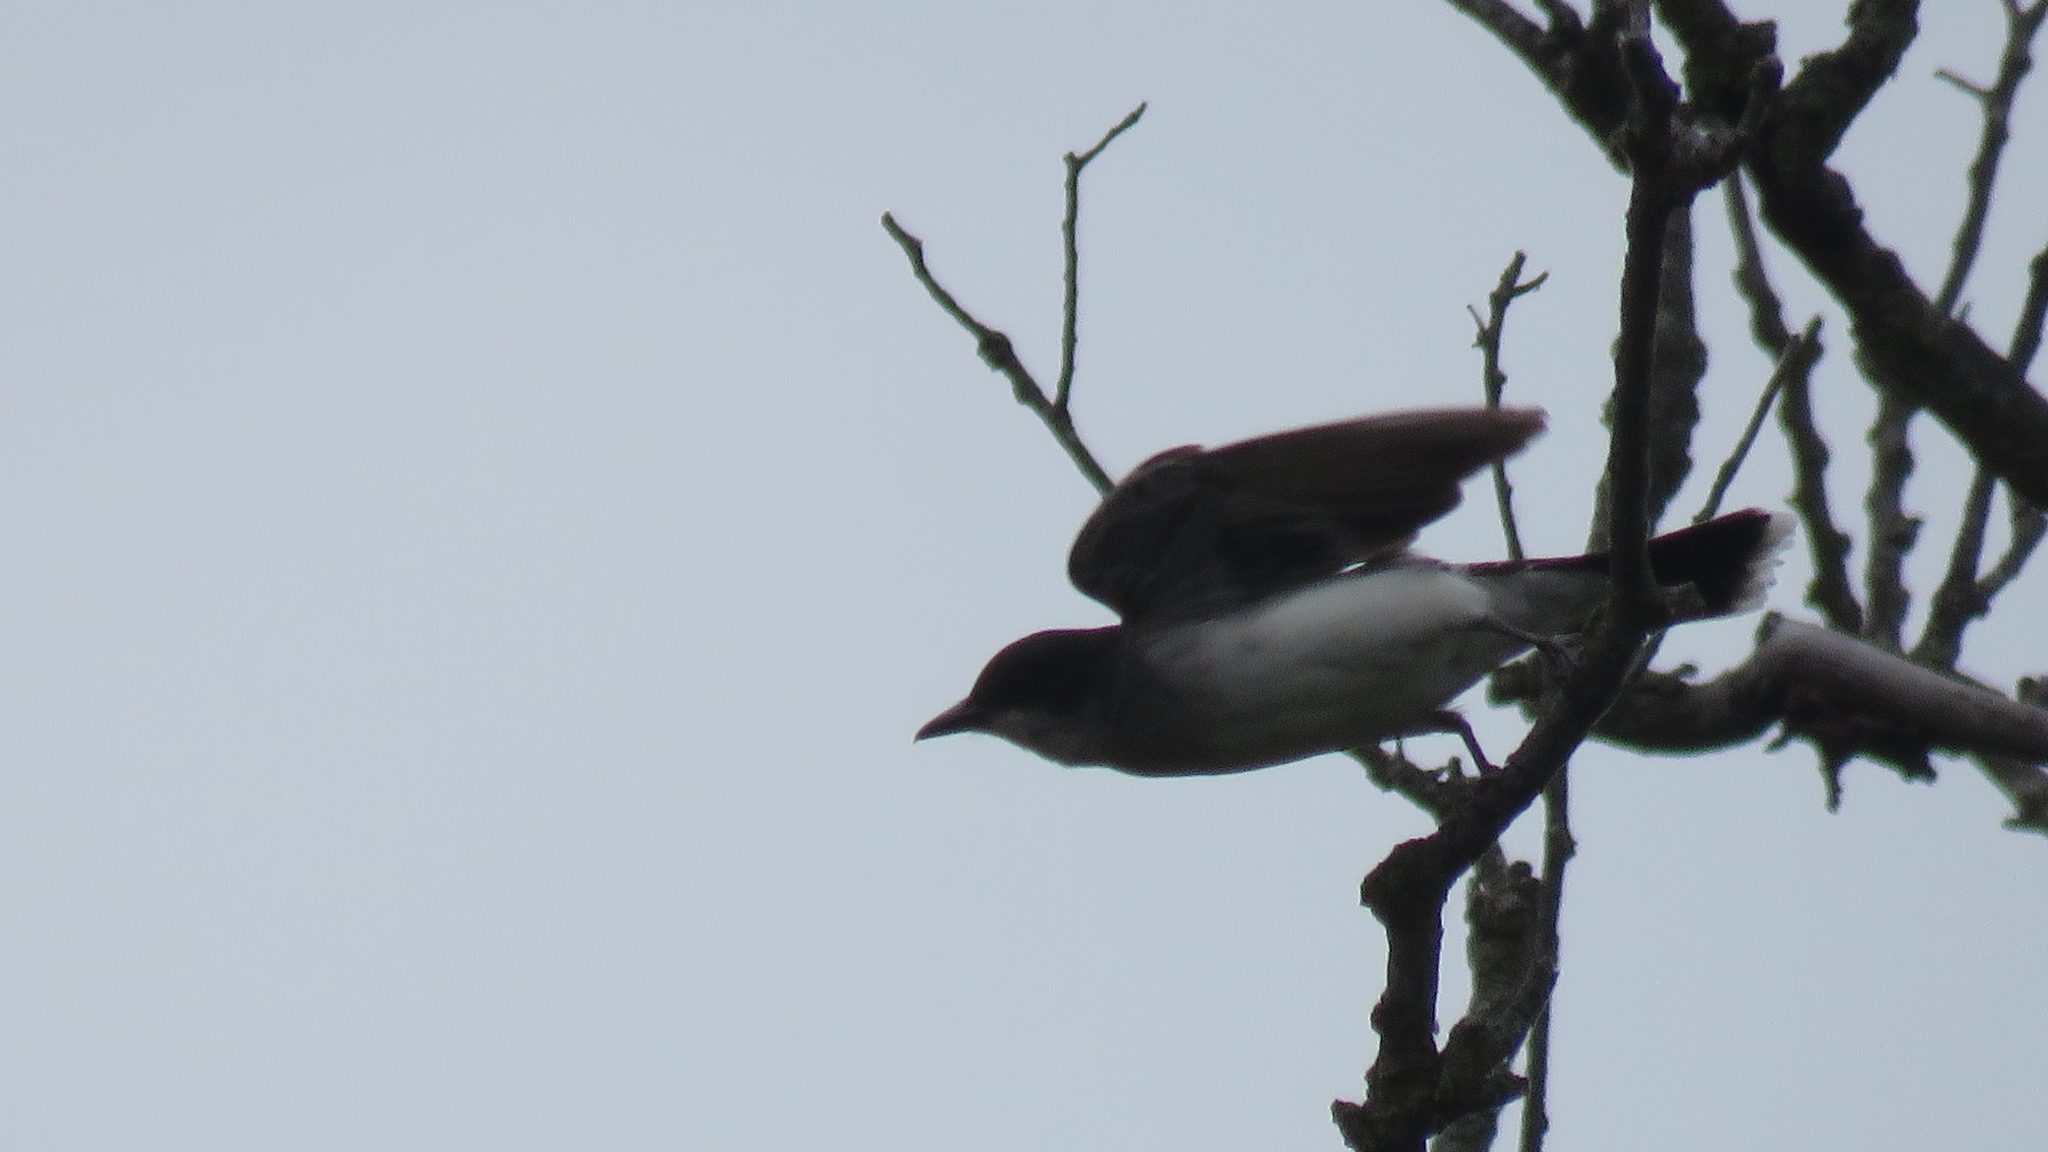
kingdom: Animalia
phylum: Chordata
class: Aves
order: Passeriformes
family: Tyrannidae
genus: Tyrannus
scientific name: Tyrannus tyrannus
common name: Eastern kingbird
